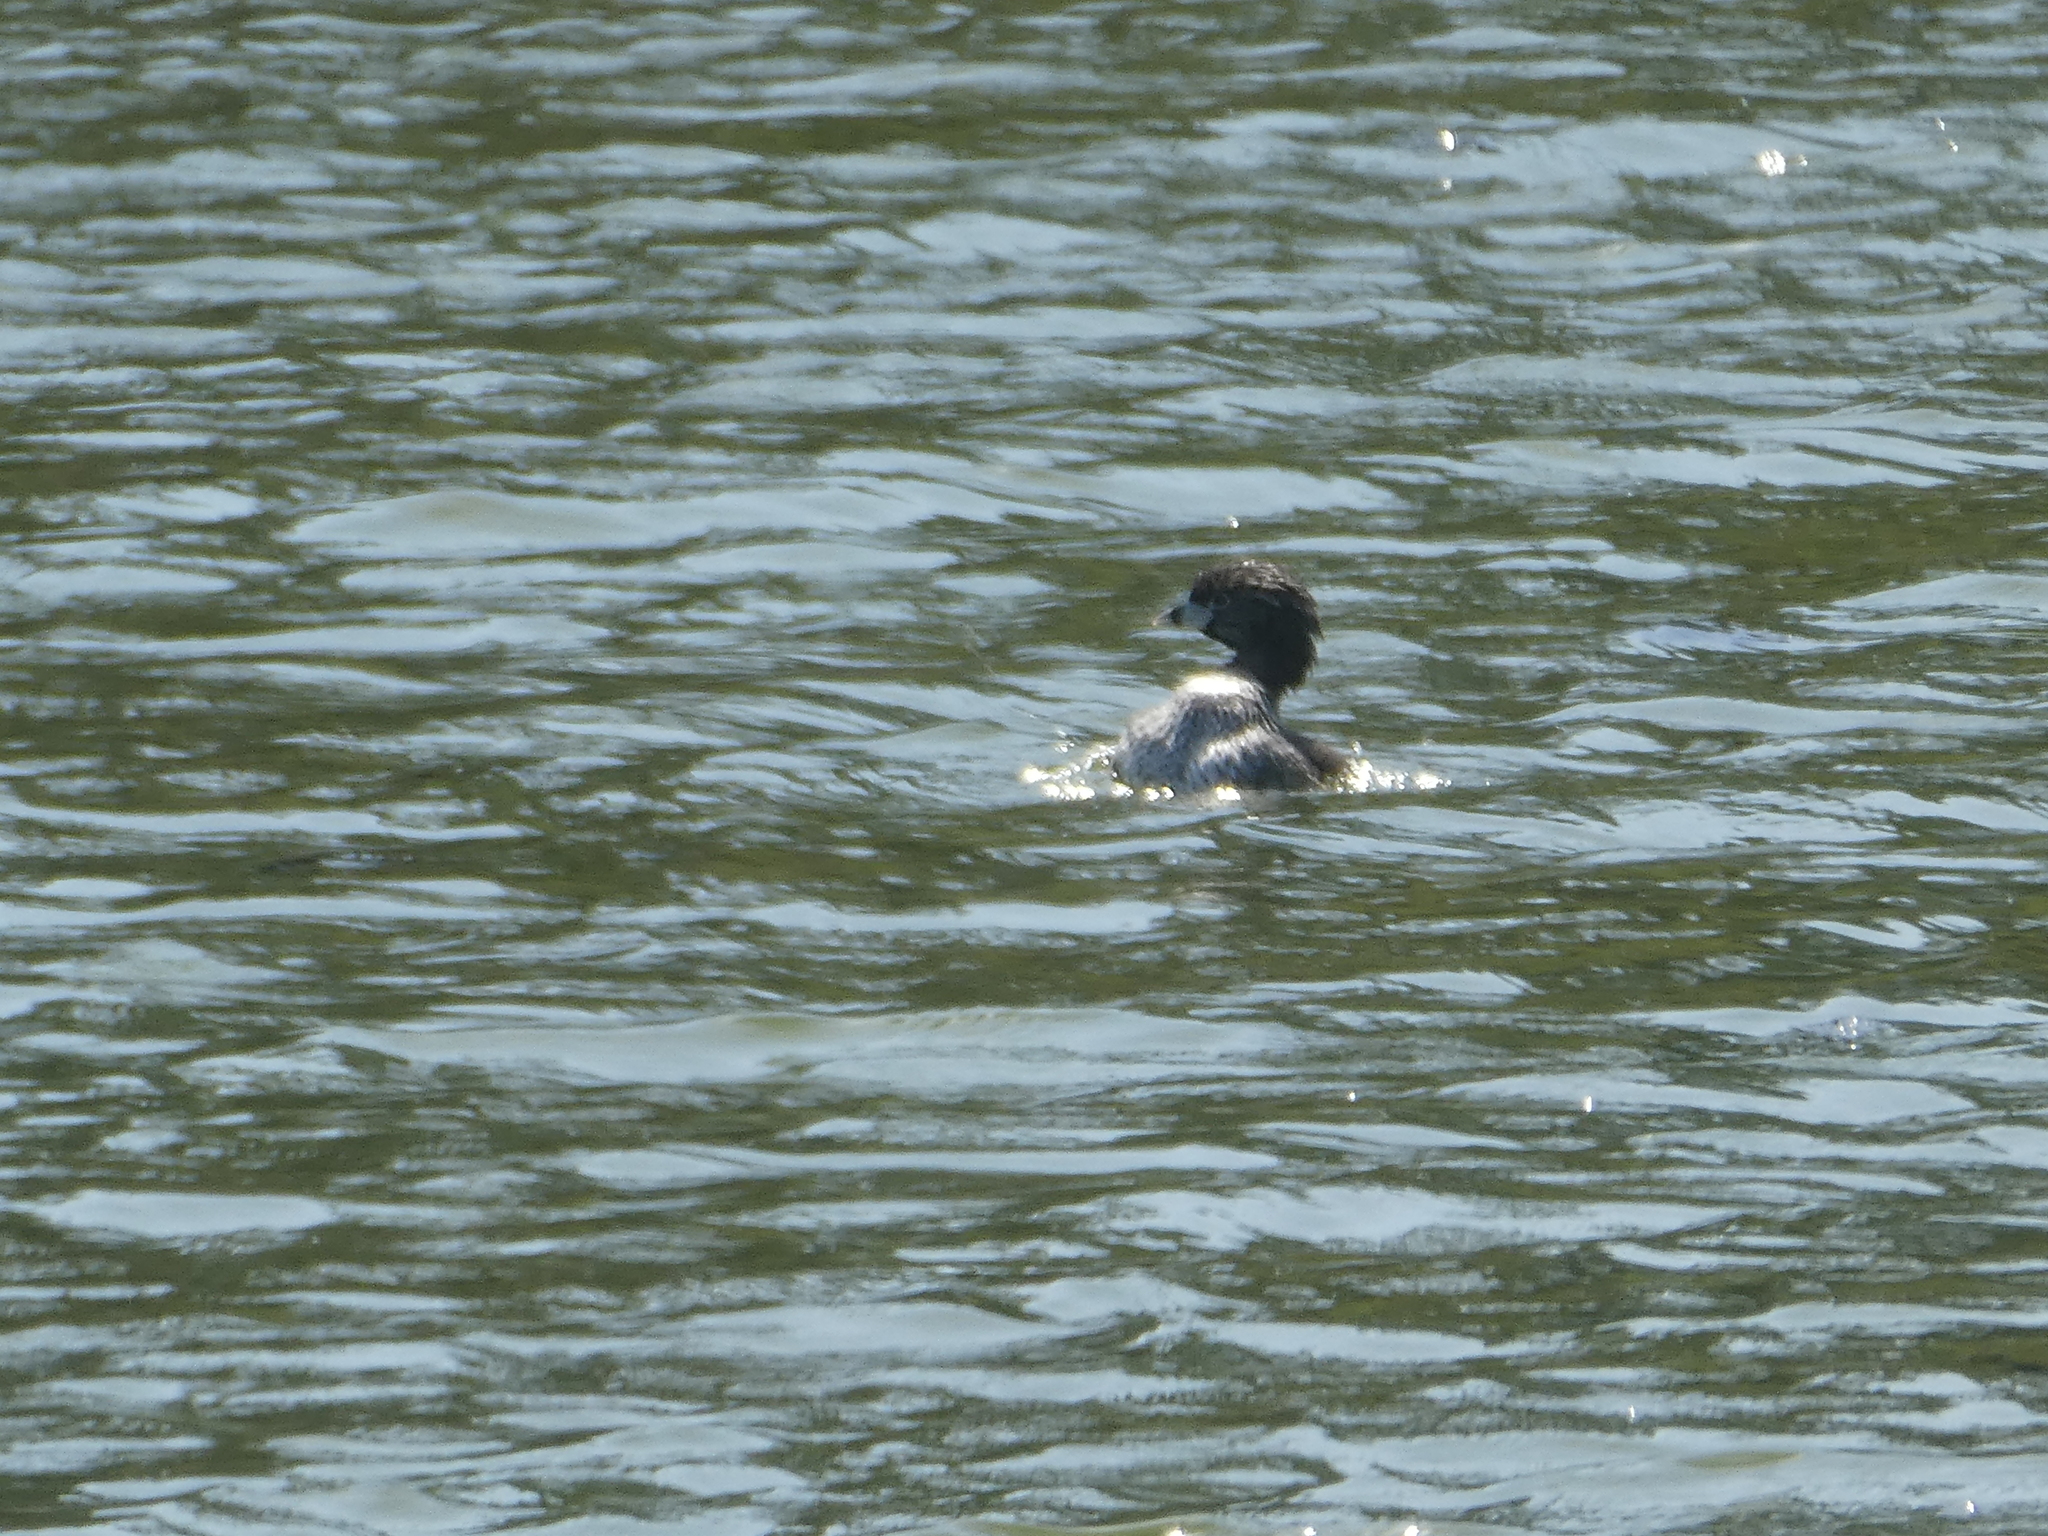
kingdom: Animalia
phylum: Chordata
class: Aves
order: Podicipediformes
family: Podicipedidae
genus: Podilymbus
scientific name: Podilymbus podiceps
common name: Pied-billed grebe
